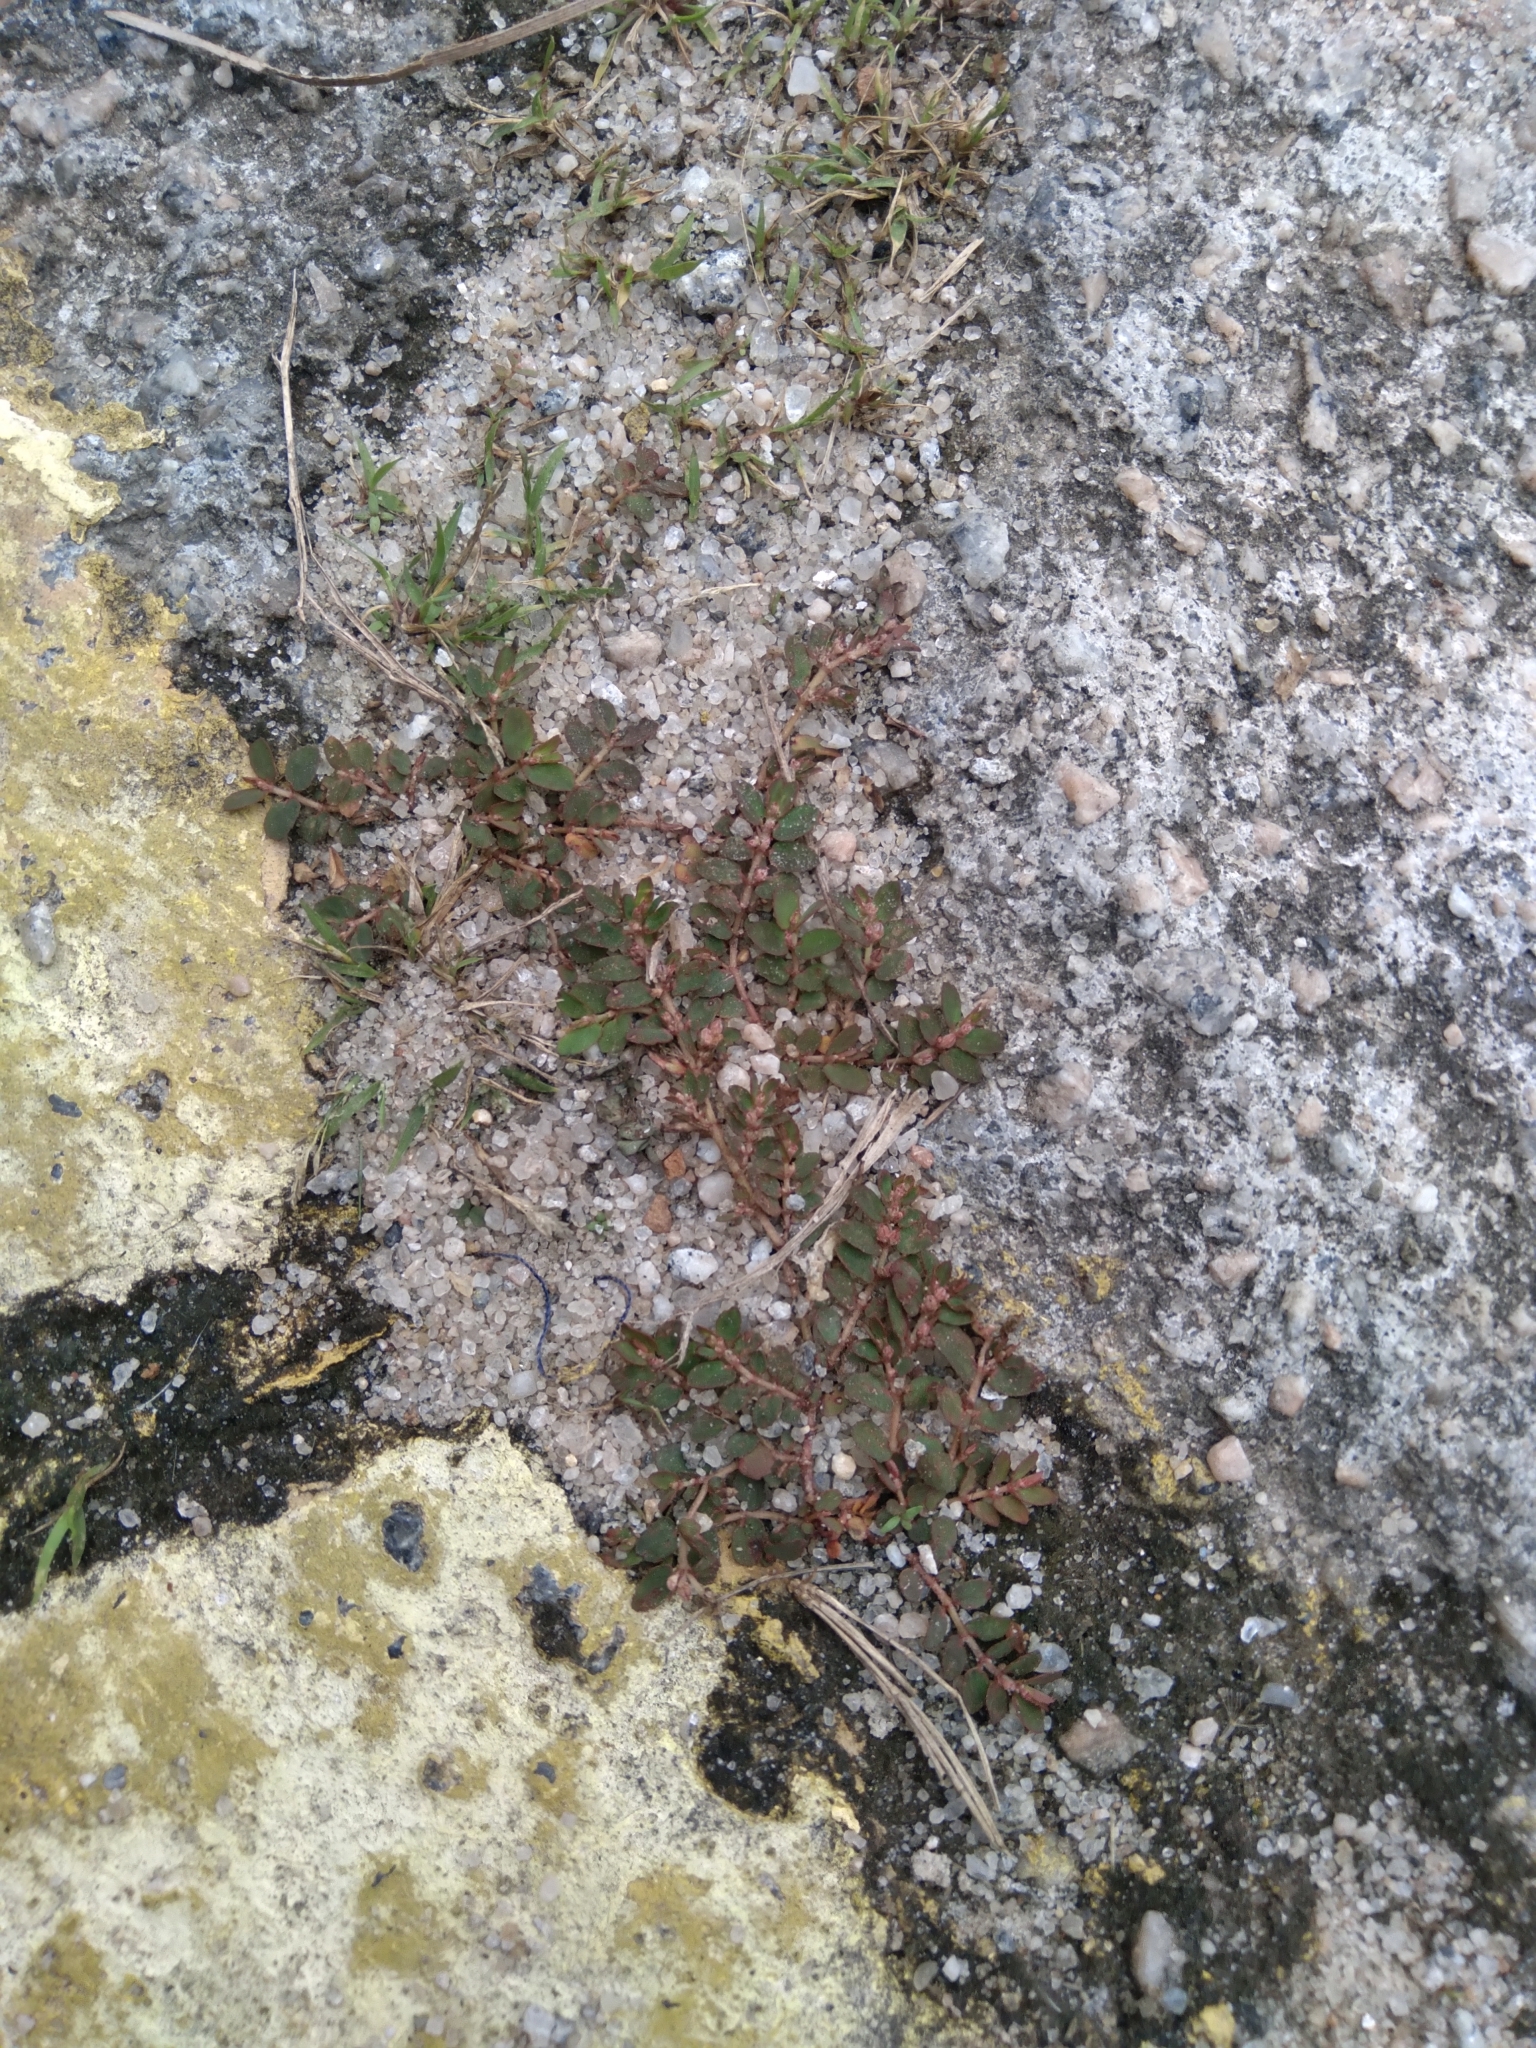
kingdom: Plantae
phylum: Tracheophyta
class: Magnoliopsida
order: Malpighiales
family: Euphorbiaceae
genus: Euphorbia
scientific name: Euphorbia thymifolia
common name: Gulf sandmat
